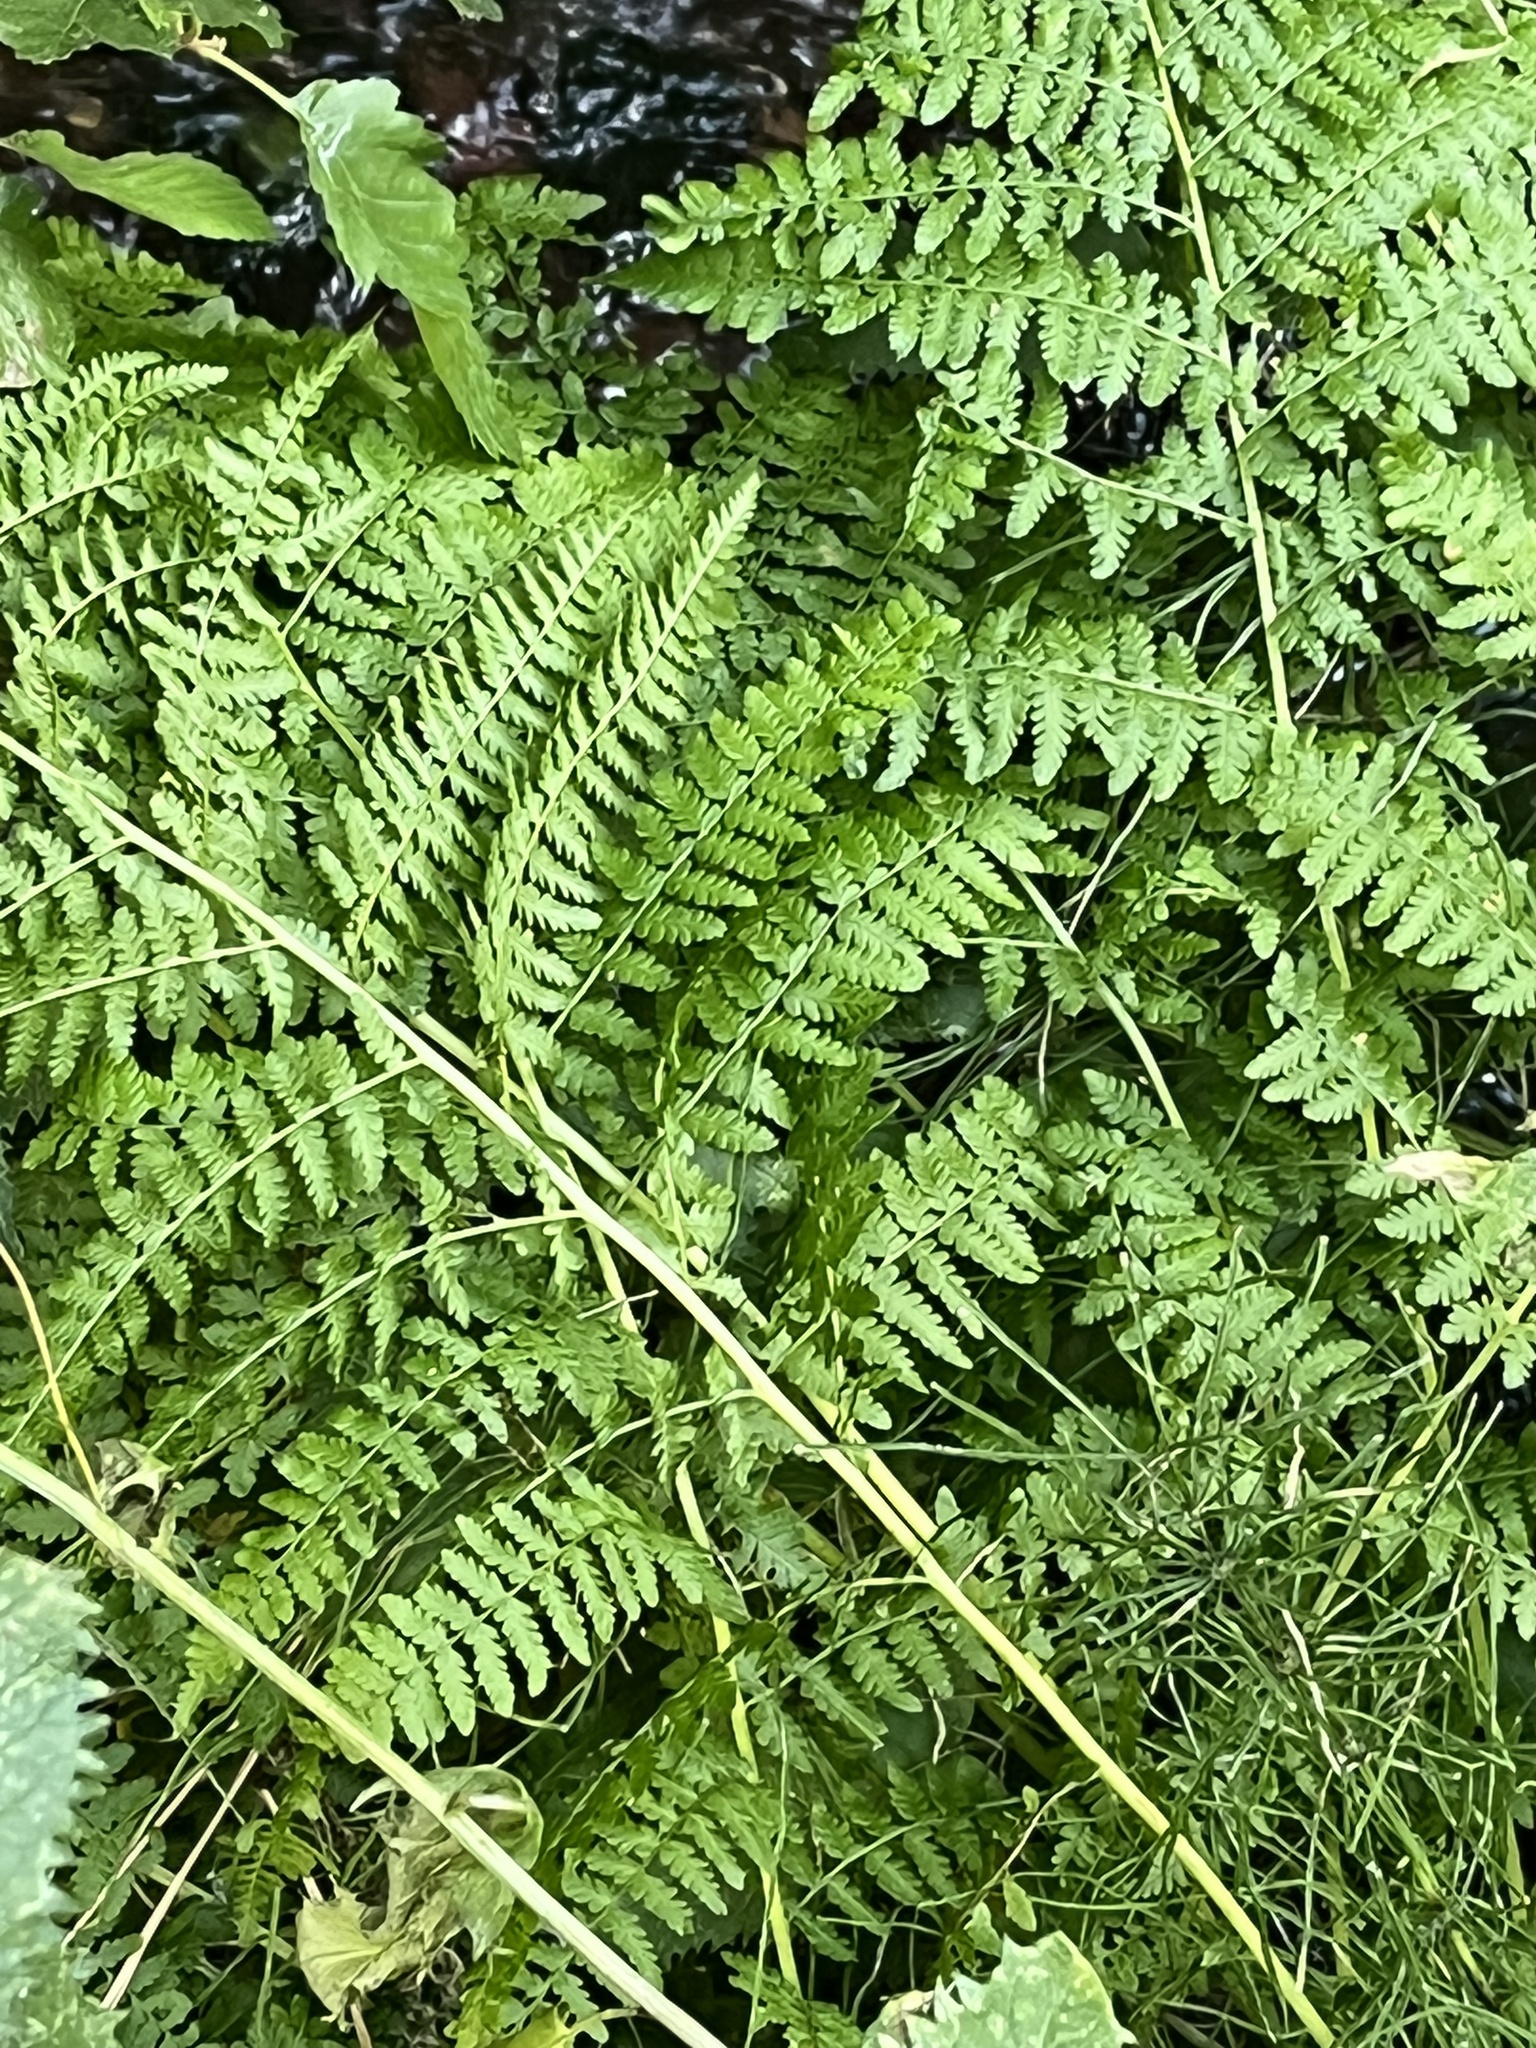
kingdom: Plantae
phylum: Tracheophyta
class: Polypodiopsida
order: Polypodiales
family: Athyriaceae
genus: Athyrium
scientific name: Athyrium cyclosorum
